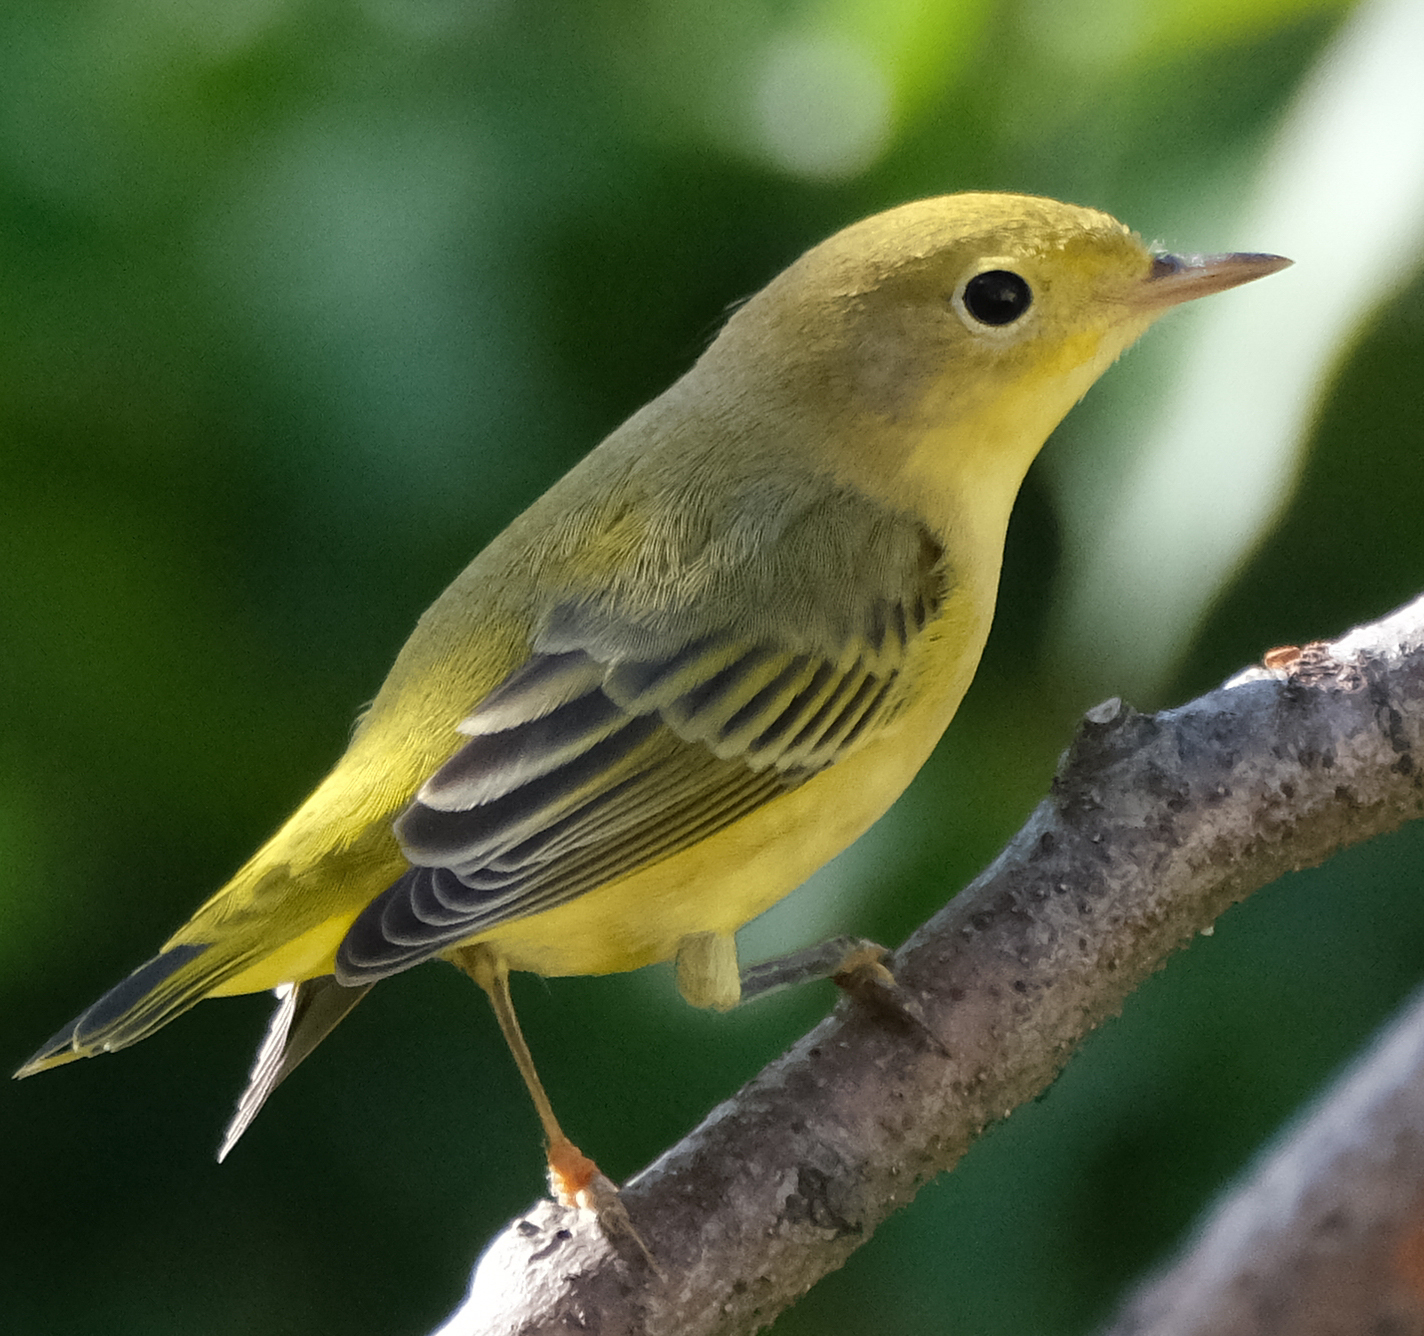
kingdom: Animalia
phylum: Chordata
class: Aves
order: Passeriformes
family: Parulidae
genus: Setophaga
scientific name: Setophaga petechia
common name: Yellow warbler
